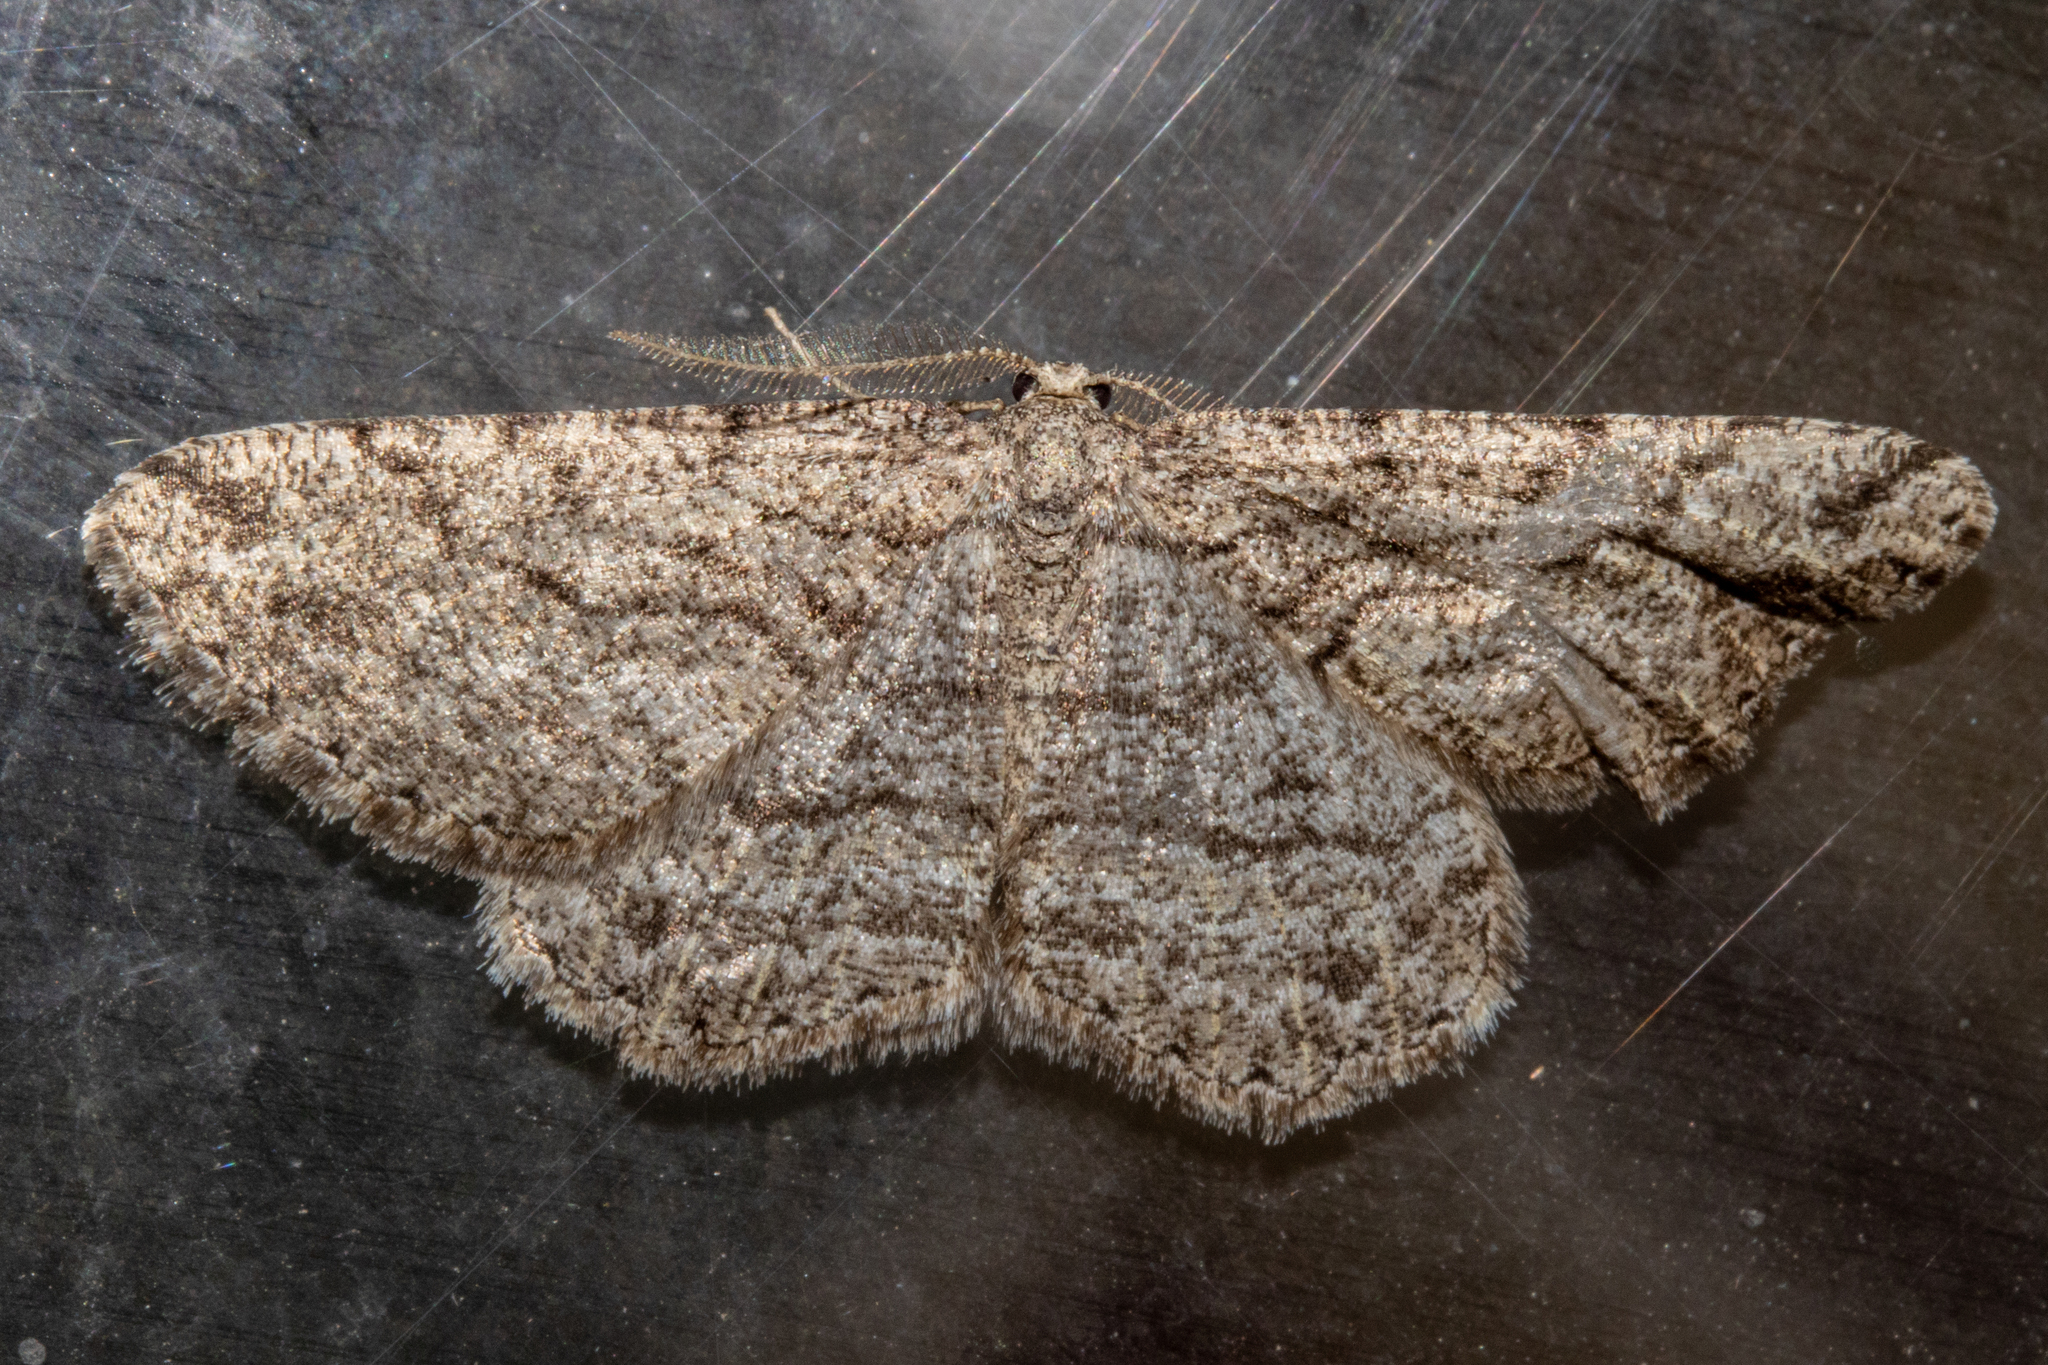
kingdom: Animalia
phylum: Arthropoda
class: Insecta
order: Lepidoptera
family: Geometridae
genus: Zermizinga
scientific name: Zermizinga indocilisaria
